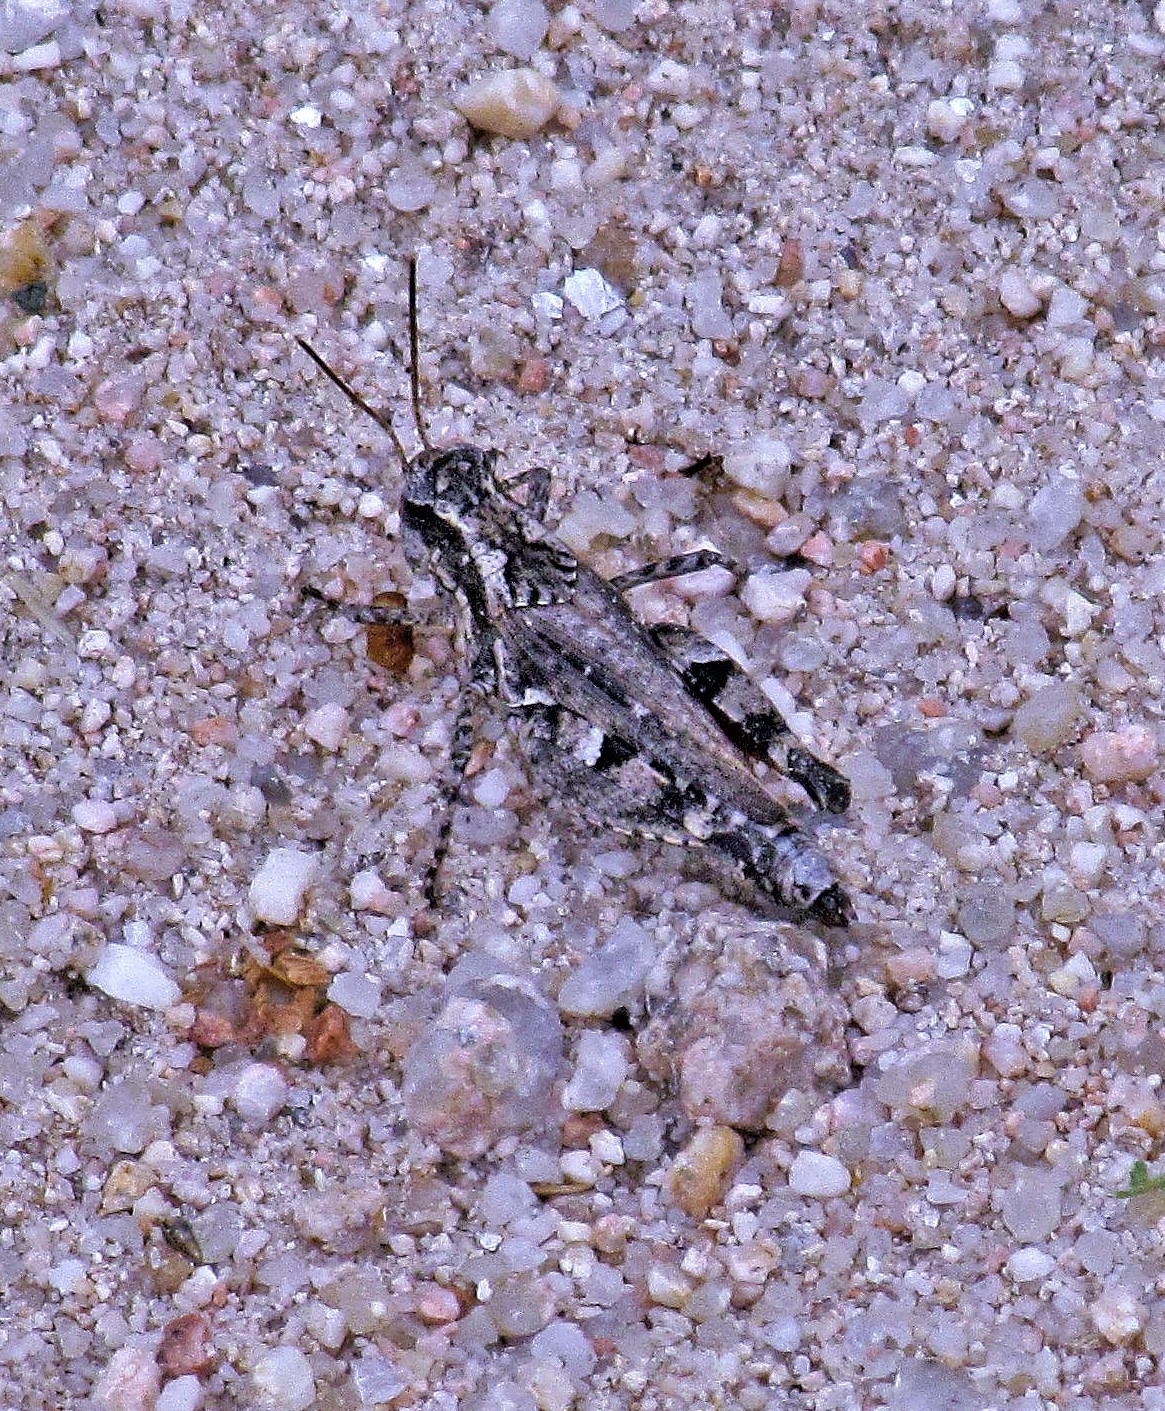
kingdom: Animalia
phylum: Arthropoda
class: Insecta
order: Orthoptera
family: Acrididae
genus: Baeacris
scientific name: Baeacris
